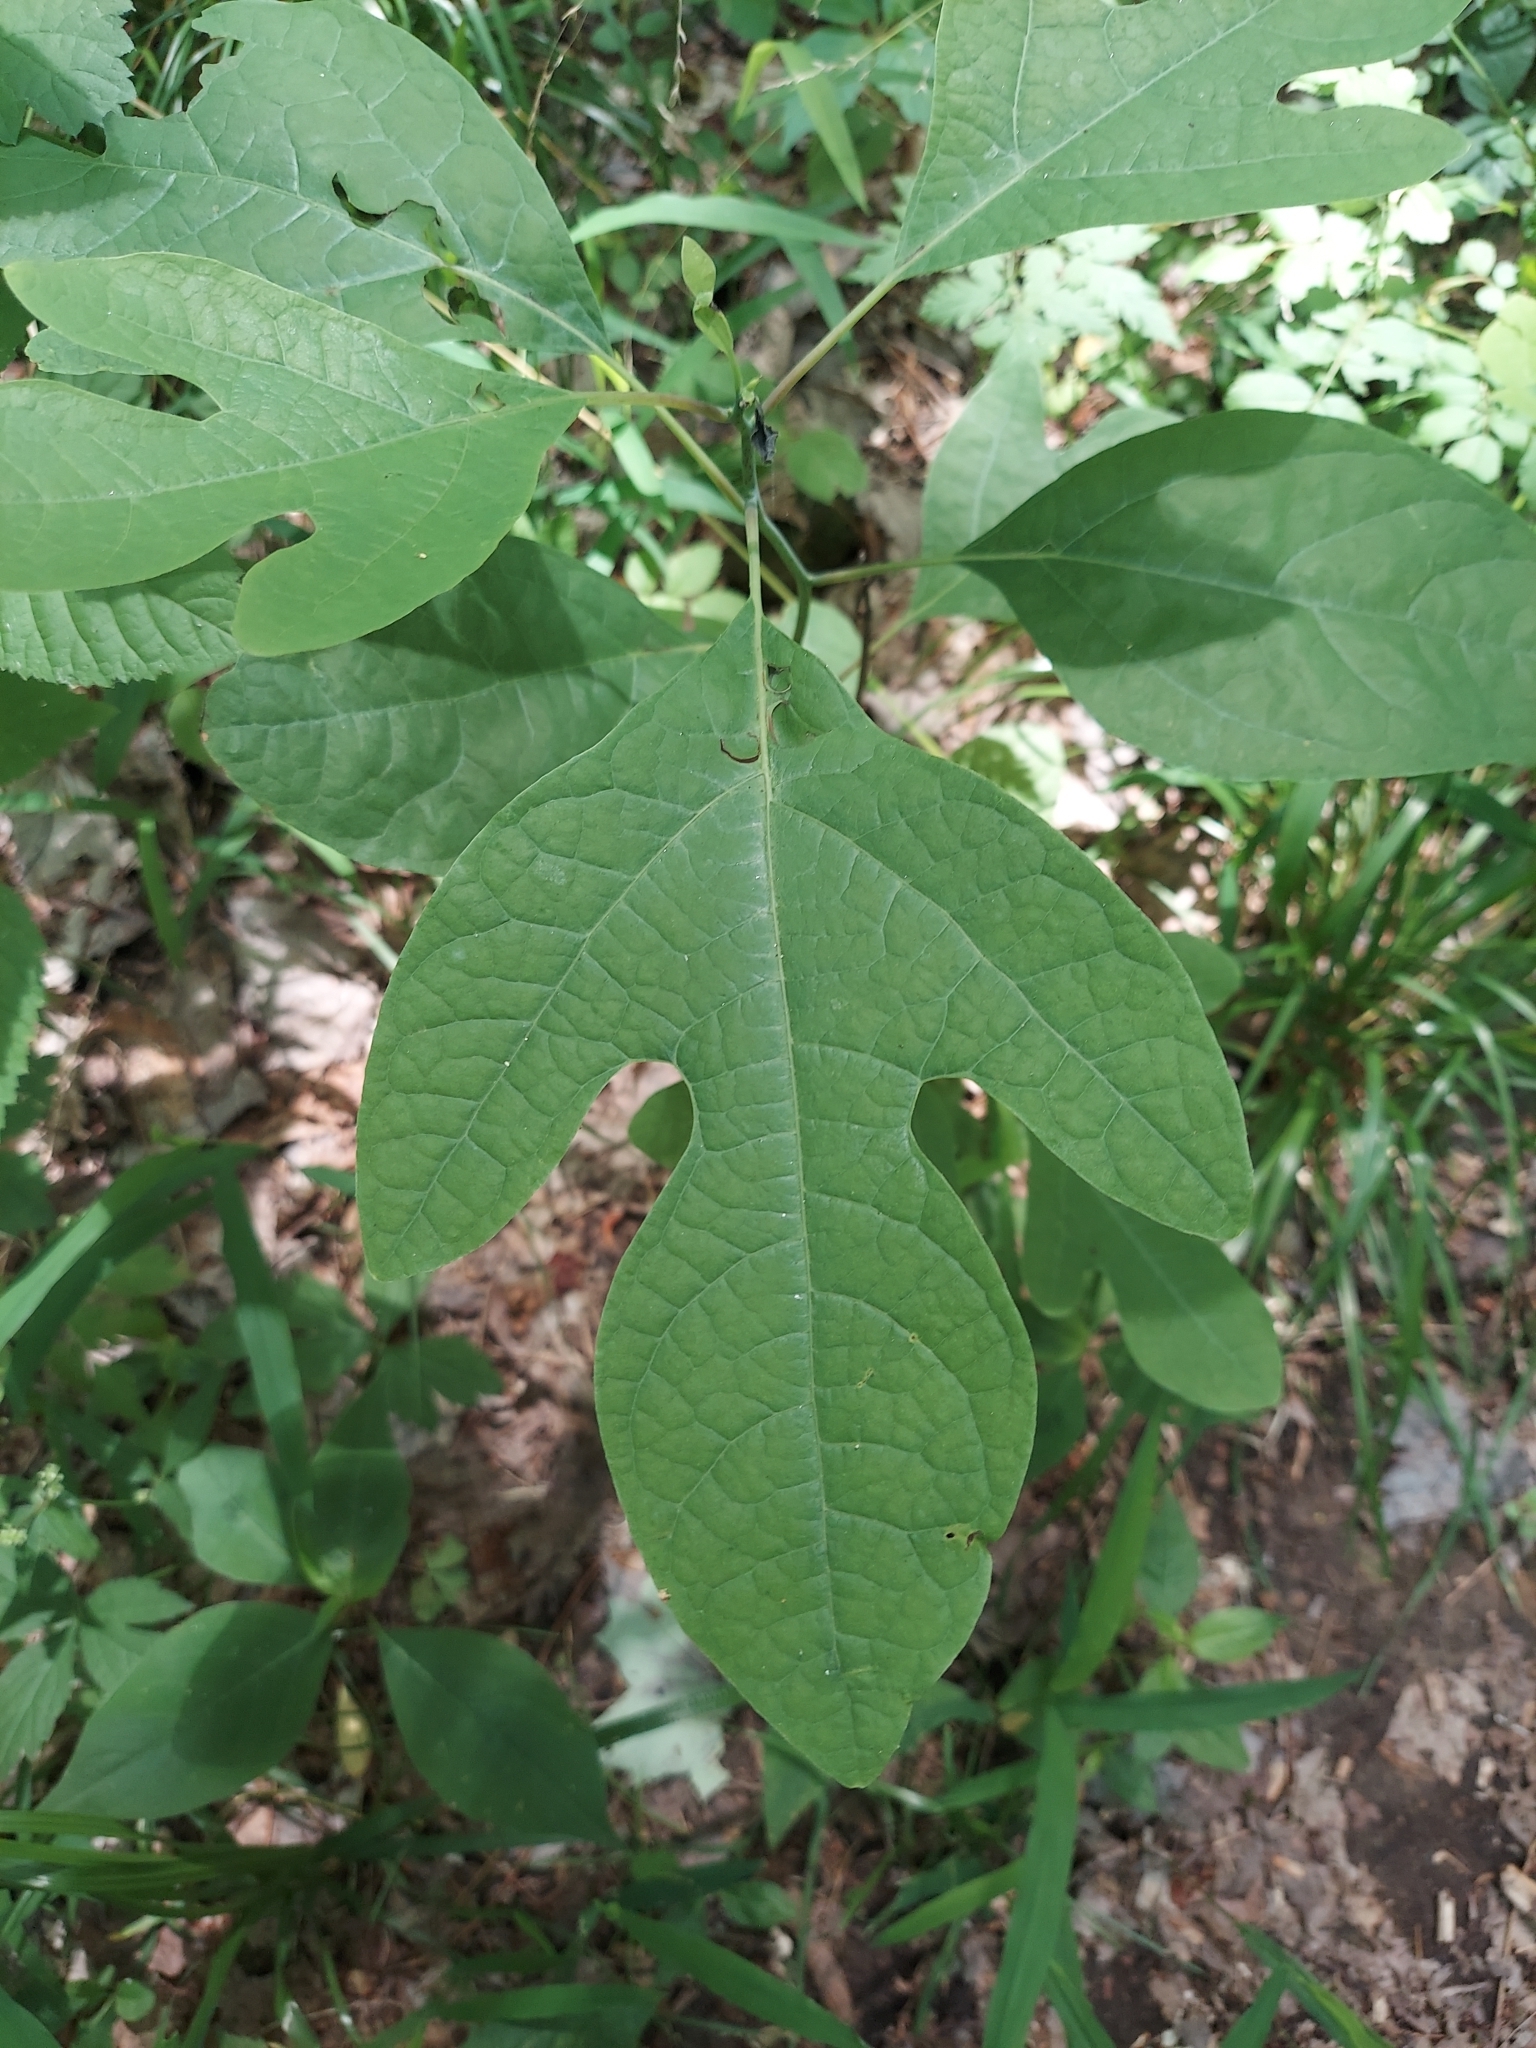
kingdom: Plantae
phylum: Tracheophyta
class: Magnoliopsida
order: Laurales
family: Lauraceae
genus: Sassafras
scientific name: Sassafras albidum
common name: Sassafras
